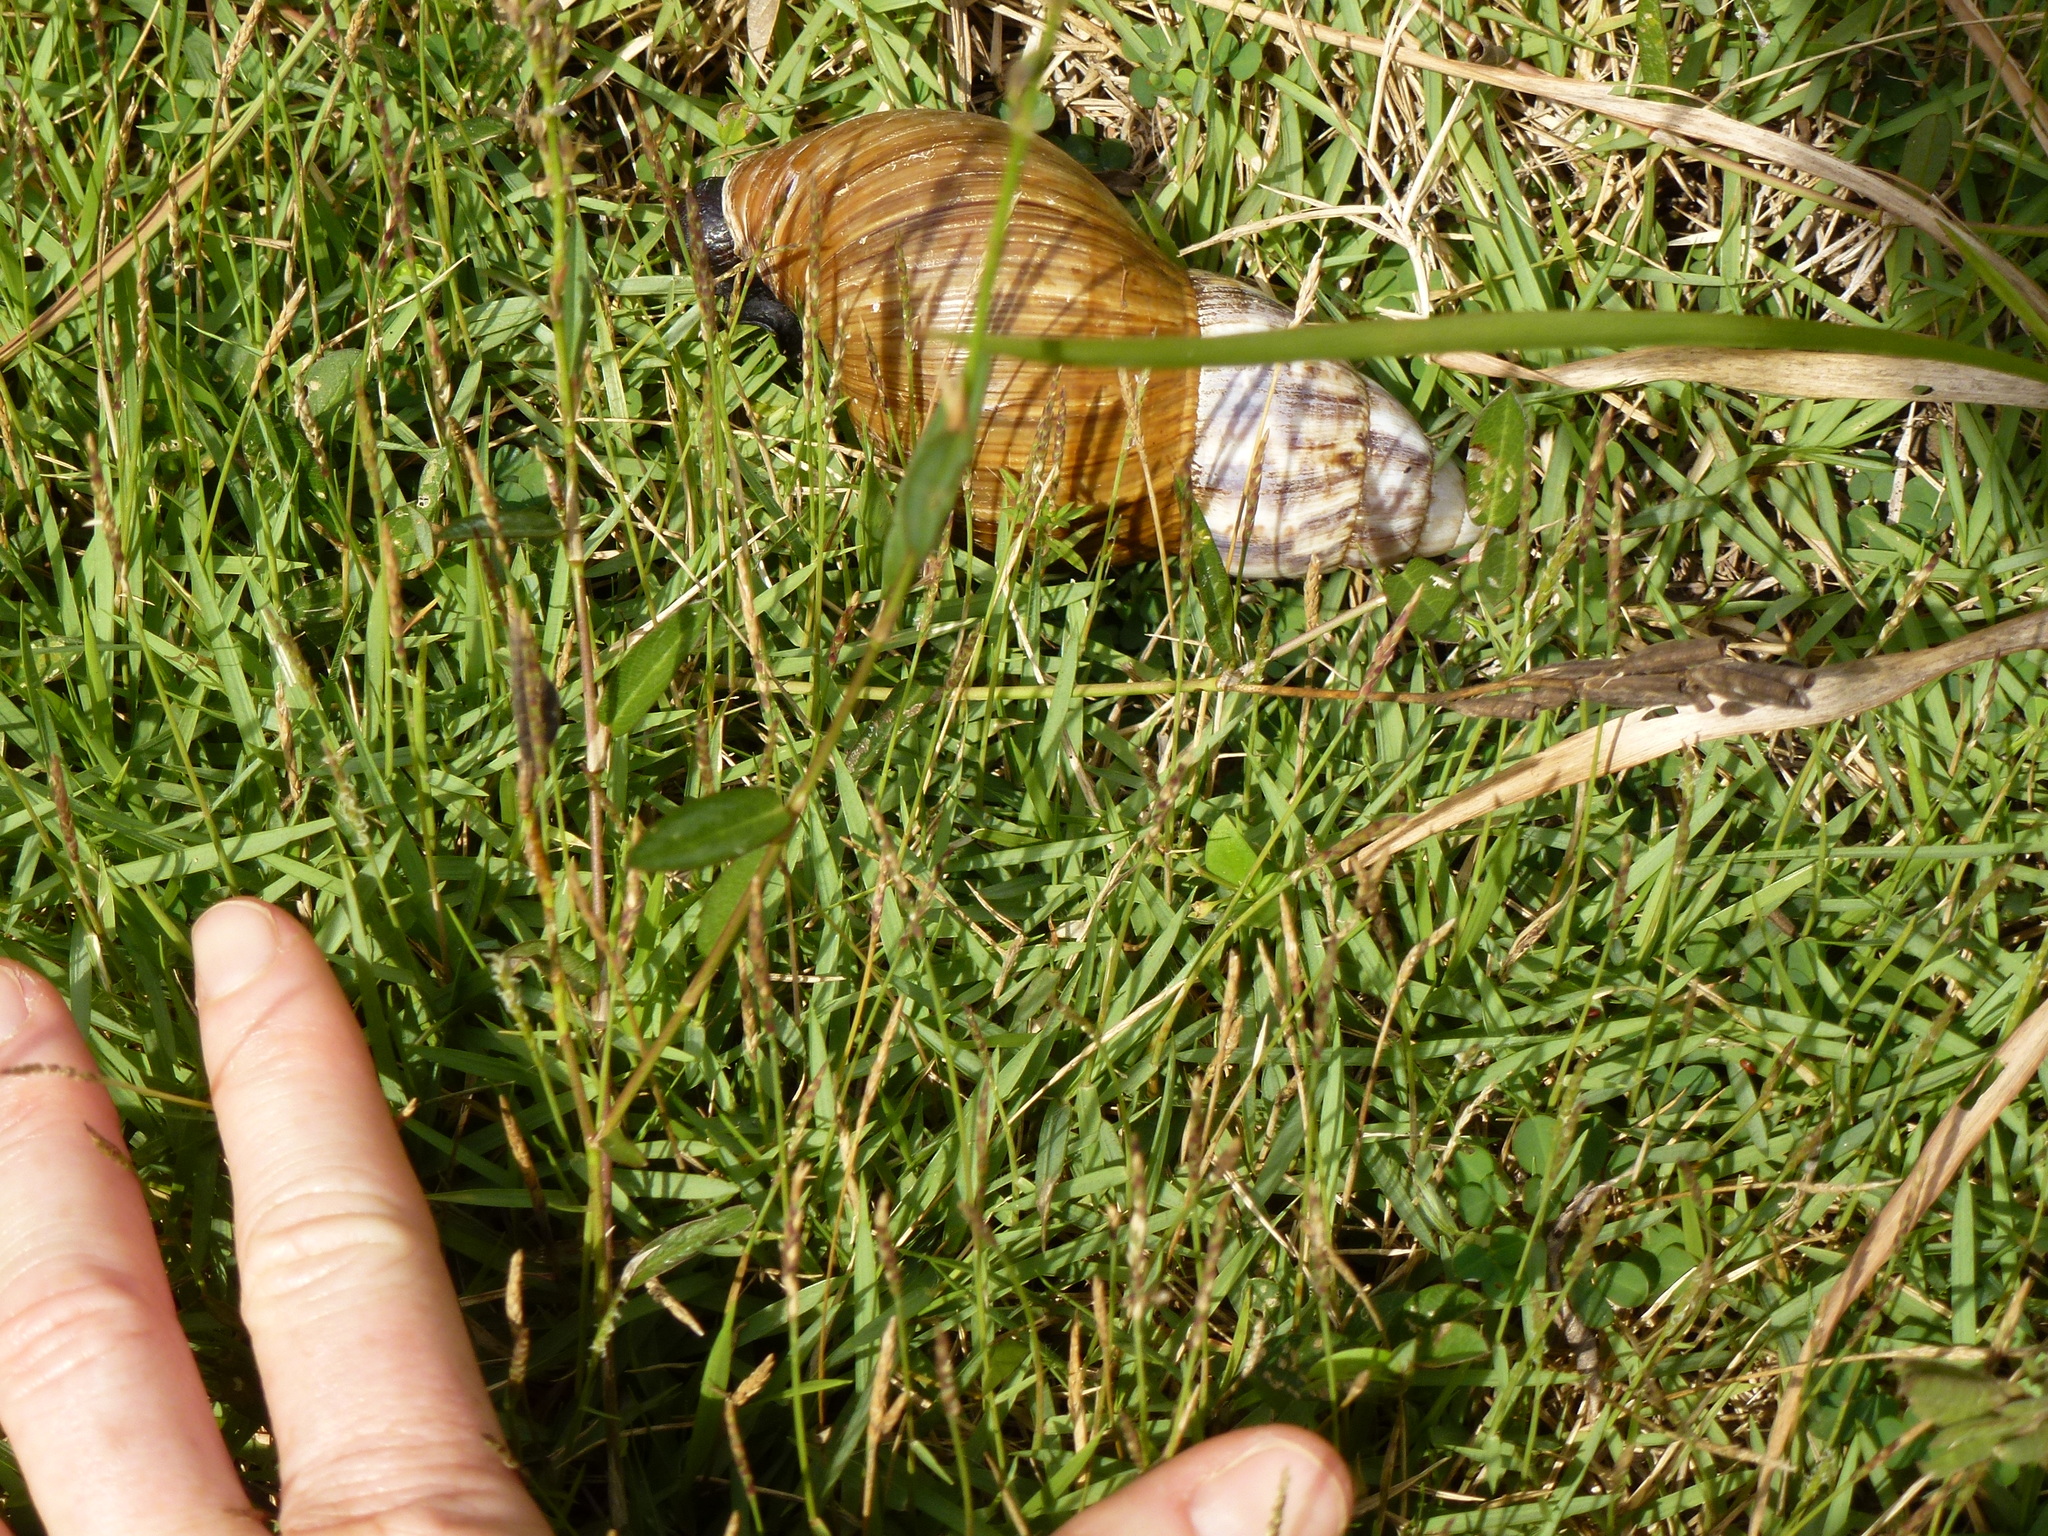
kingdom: Animalia
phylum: Mollusca
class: Gastropoda
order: Stylommatophora
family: Achatinidae
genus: Lissachatina
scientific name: Lissachatina fulica
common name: Giant african snail
